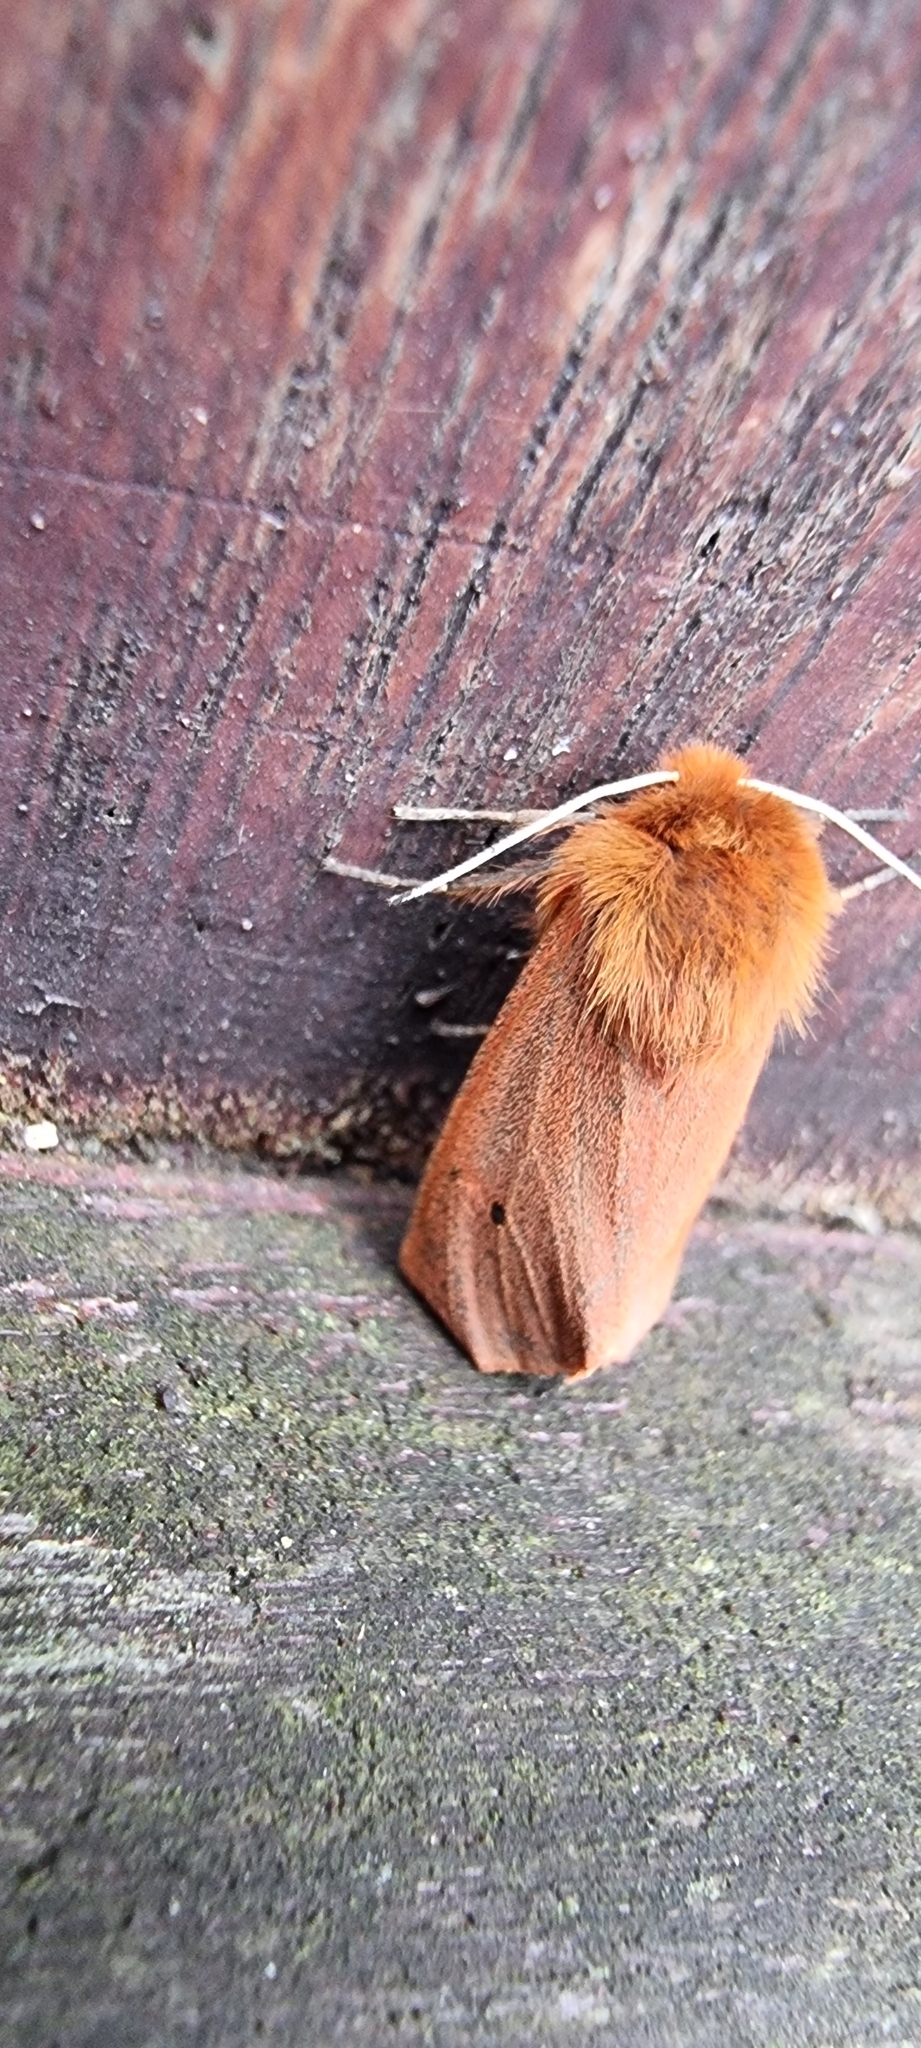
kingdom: Animalia
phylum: Arthropoda
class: Insecta
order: Lepidoptera
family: Erebidae
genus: Phragmatobia
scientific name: Phragmatobia fuliginosa
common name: Ruby tiger
